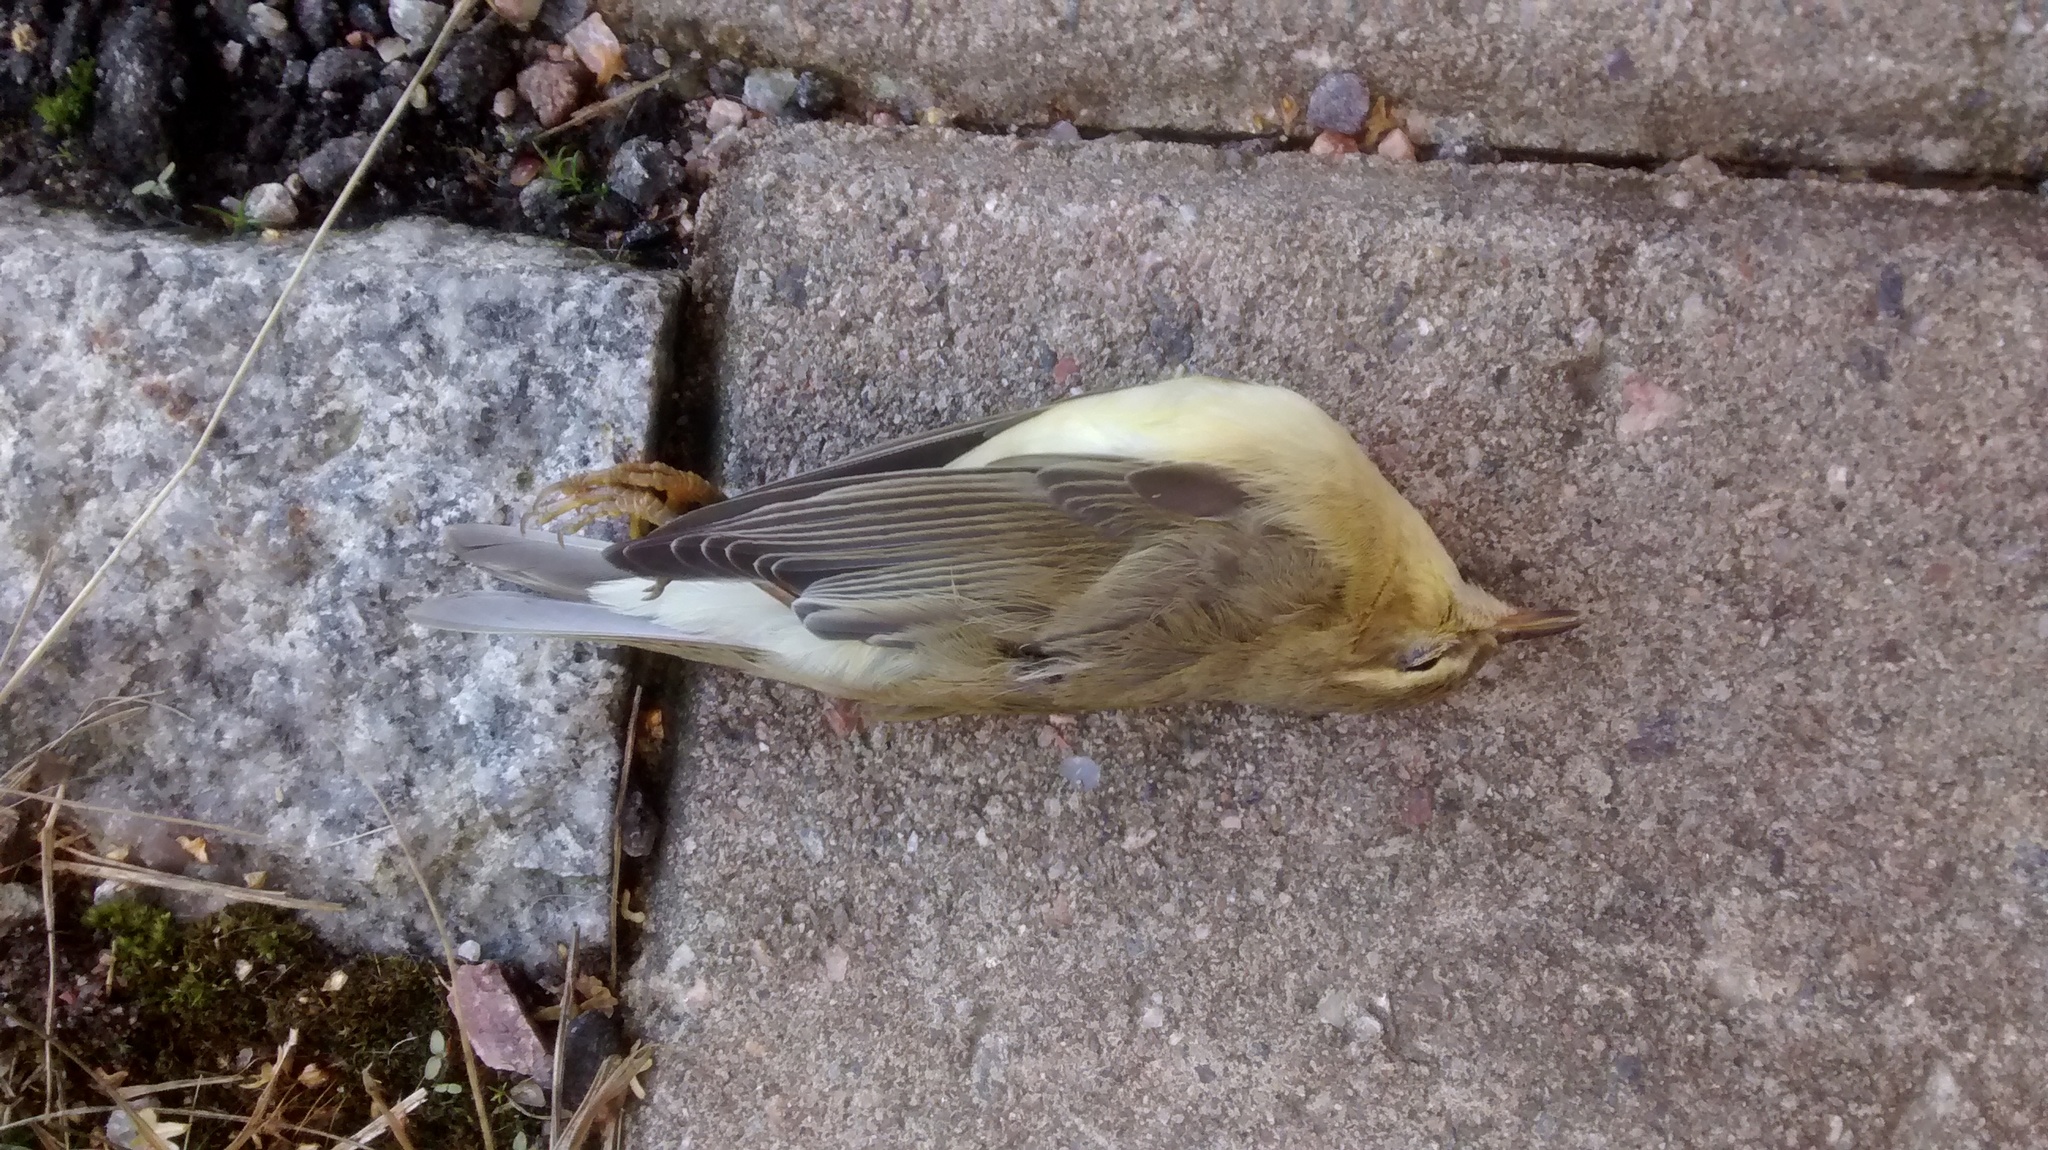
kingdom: Animalia
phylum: Chordata
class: Aves
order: Passeriformes
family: Phylloscopidae
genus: Phylloscopus
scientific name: Phylloscopus trochilus
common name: Willow warbler
